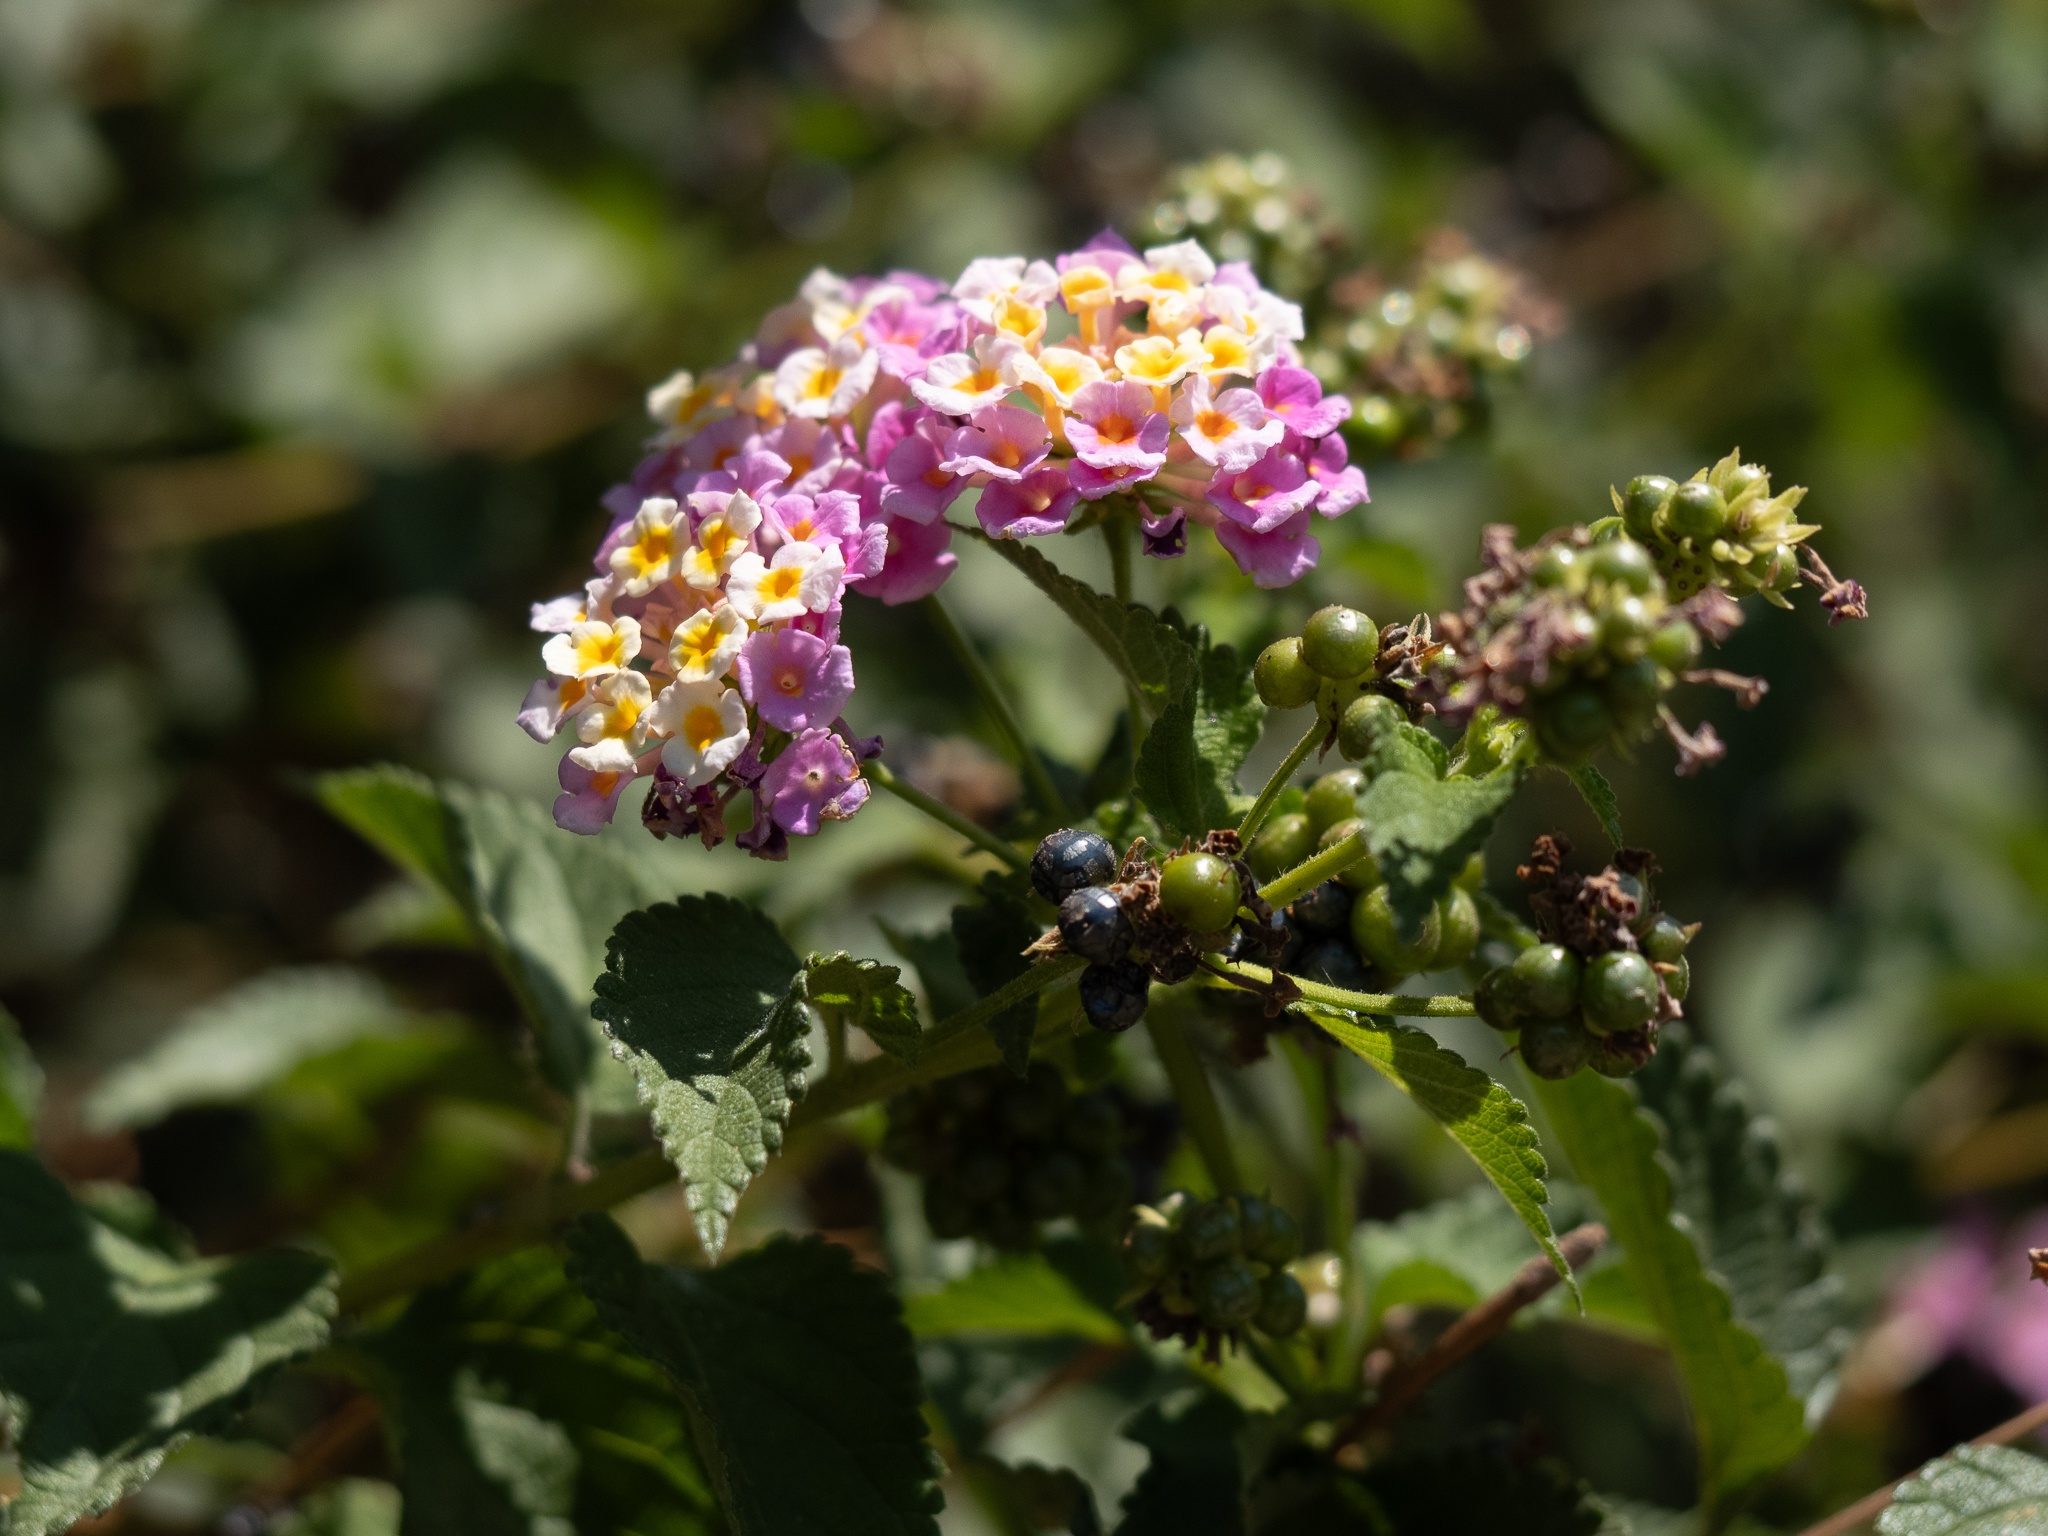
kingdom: Plantae
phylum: Tracheophyta
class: Magnoliopsida
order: Lamiales
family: Verbenaceae
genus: Lantana
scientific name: Lantana camara
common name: Lantana
